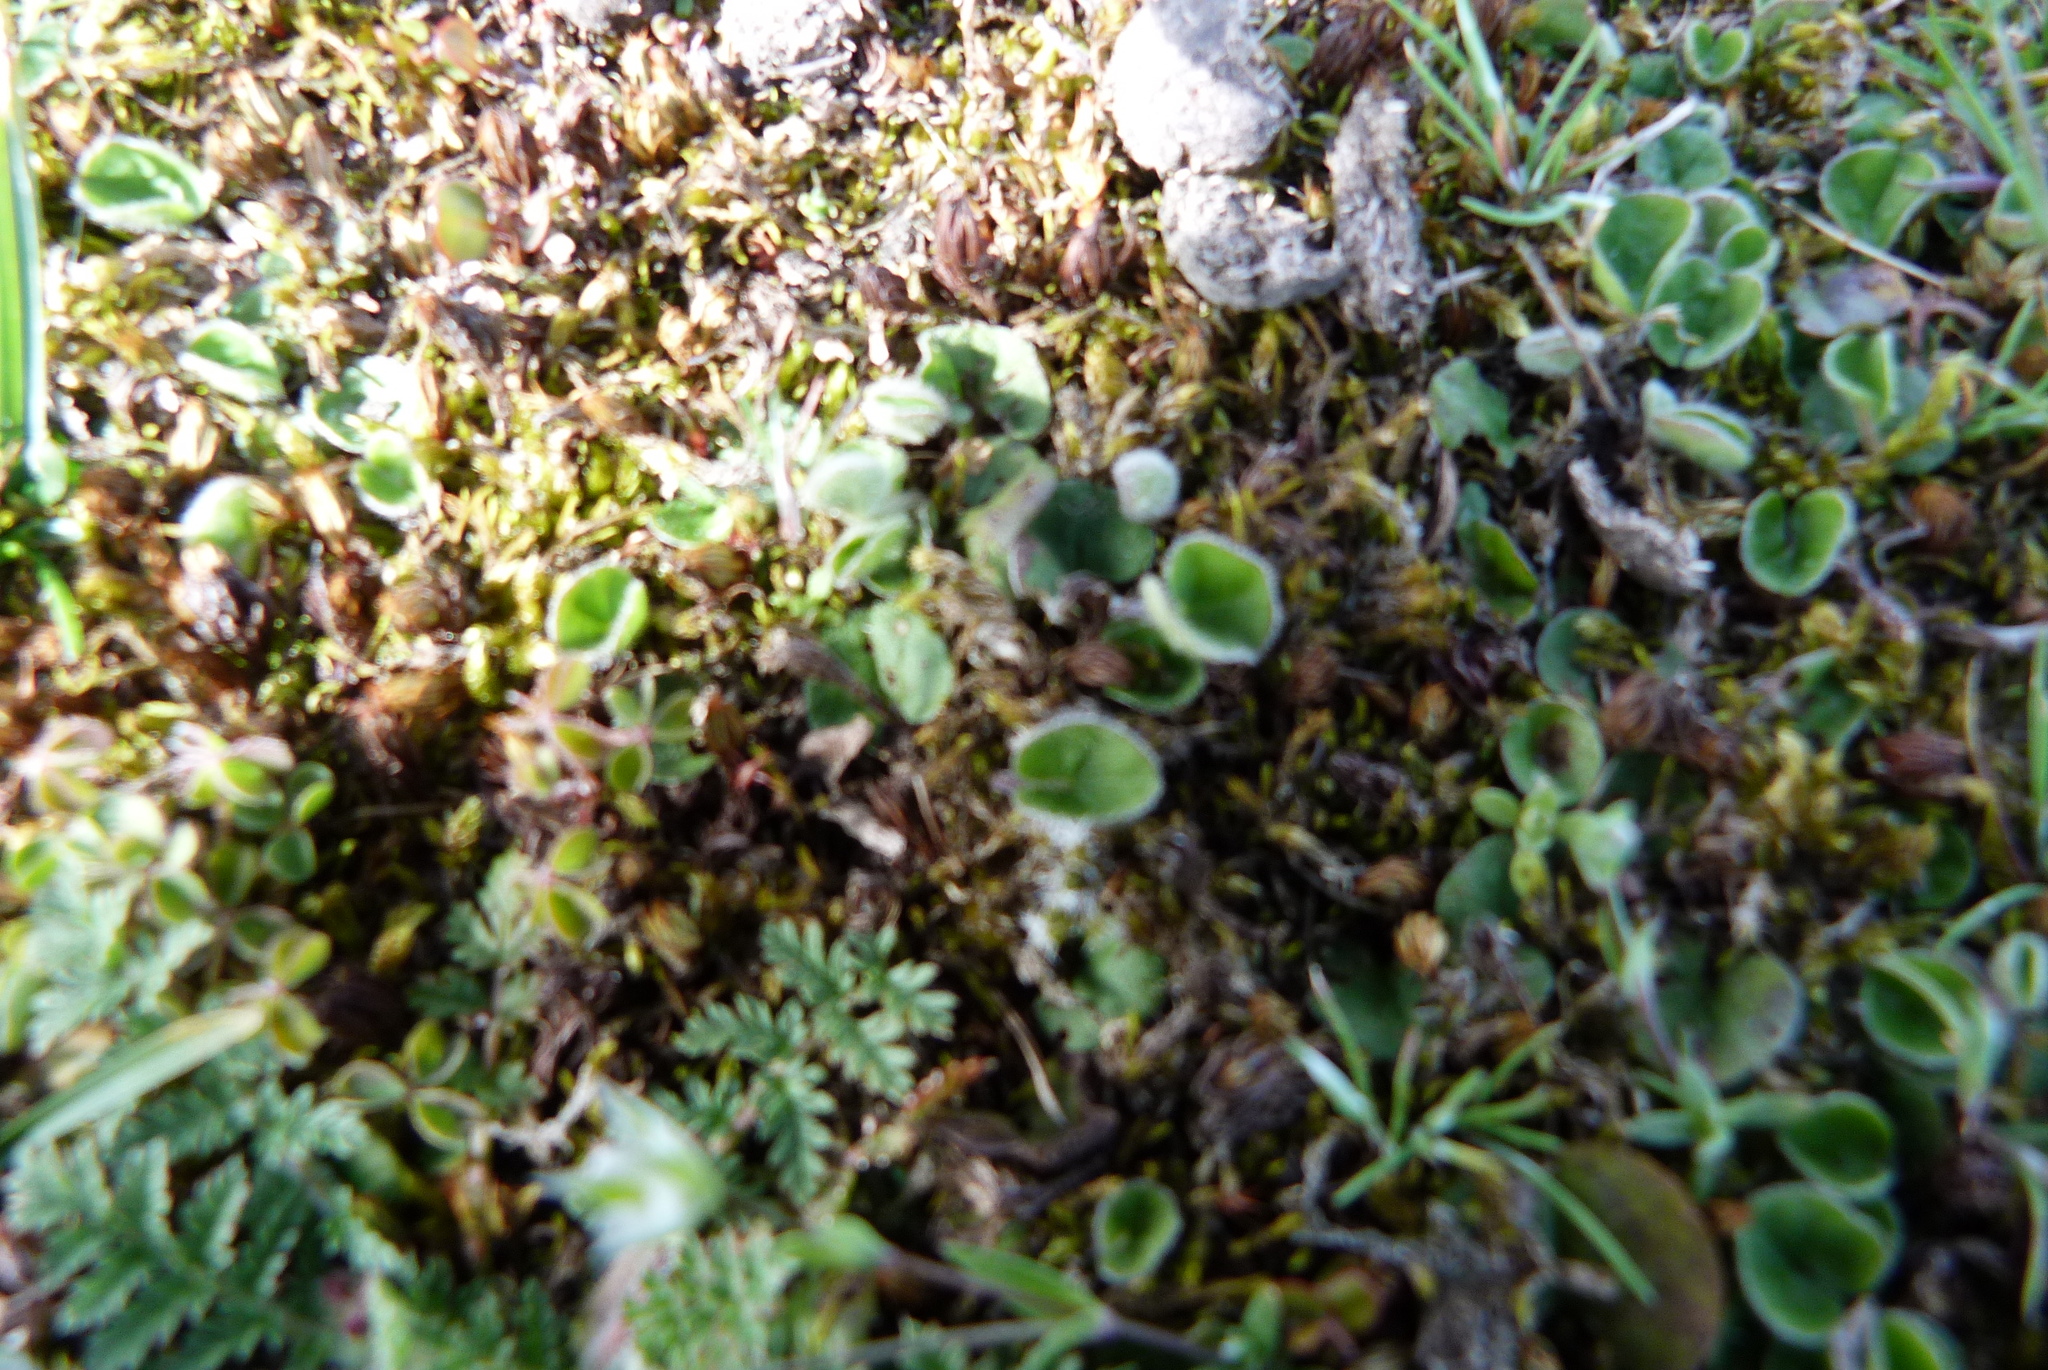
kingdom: Plantae
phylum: Tracheophyta
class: Magnoliopsida
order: Solanales
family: Convolvulaceae
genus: Dichondra
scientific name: Dichondra repens
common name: Kidneyweed
